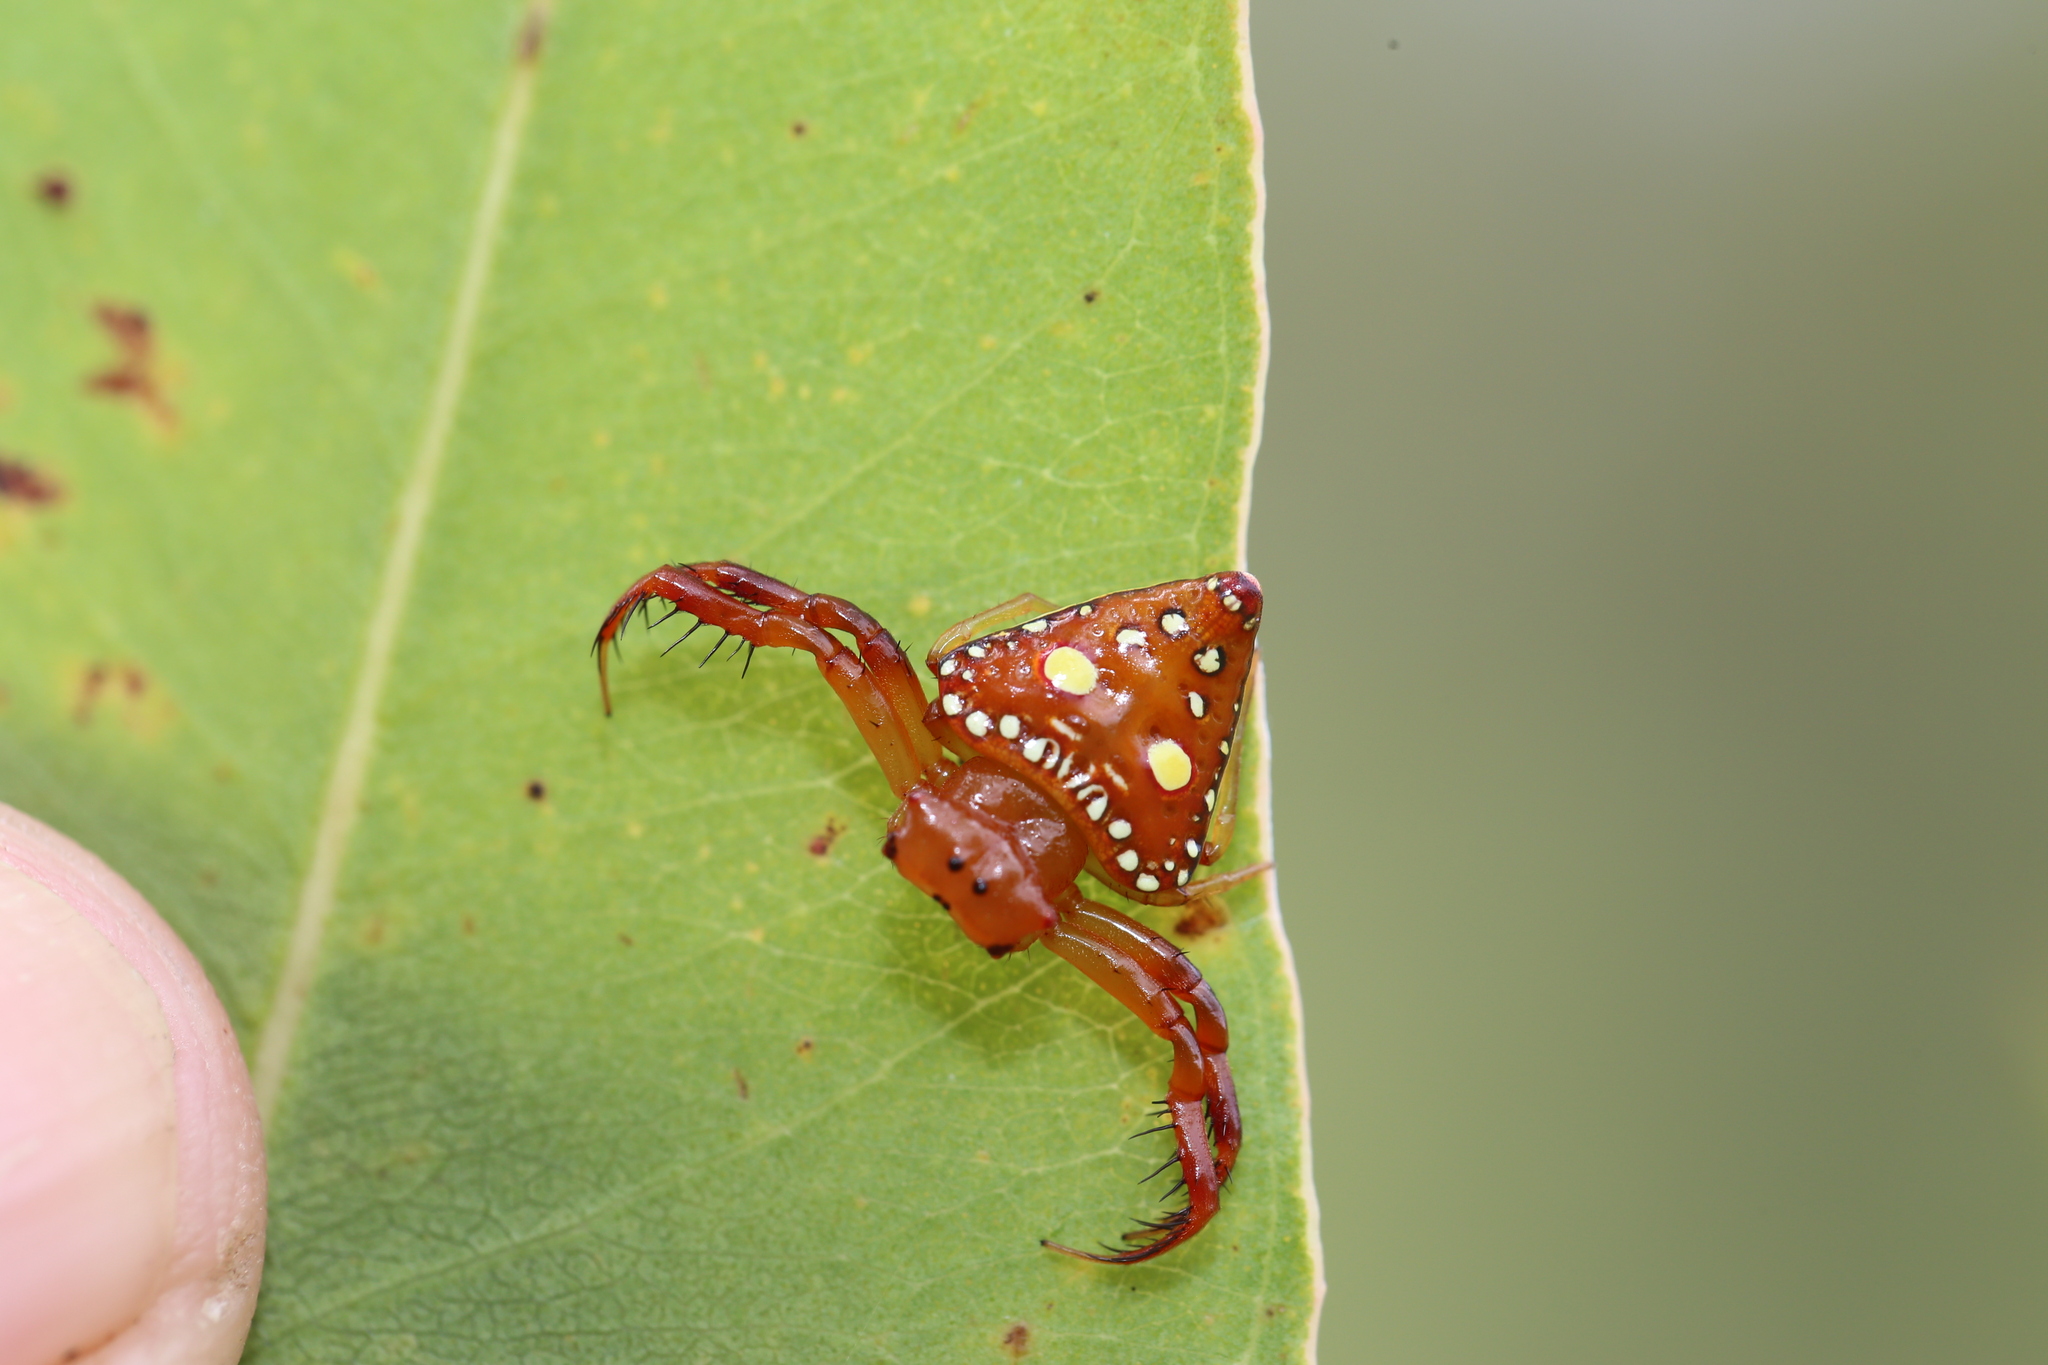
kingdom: Animalia
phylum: Arthropoda
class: Arachnida
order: Araneae
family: Arkyidae
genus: Arkys
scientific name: Arkys lancearius
